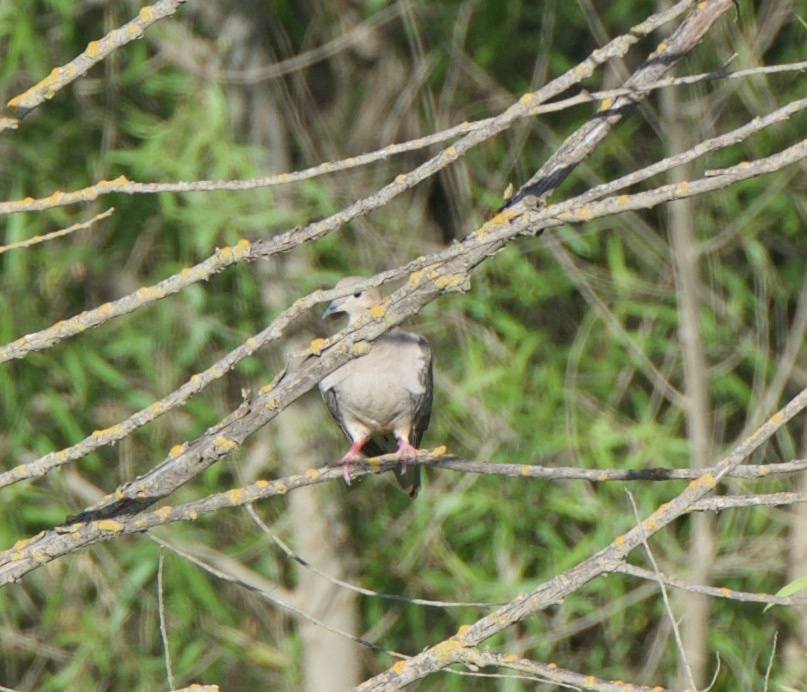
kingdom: Animalia
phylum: Chordata
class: Aves
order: Columbiformes
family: Columbidae
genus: Zenaida
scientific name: Zenaida macroura
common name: Mourning dove
